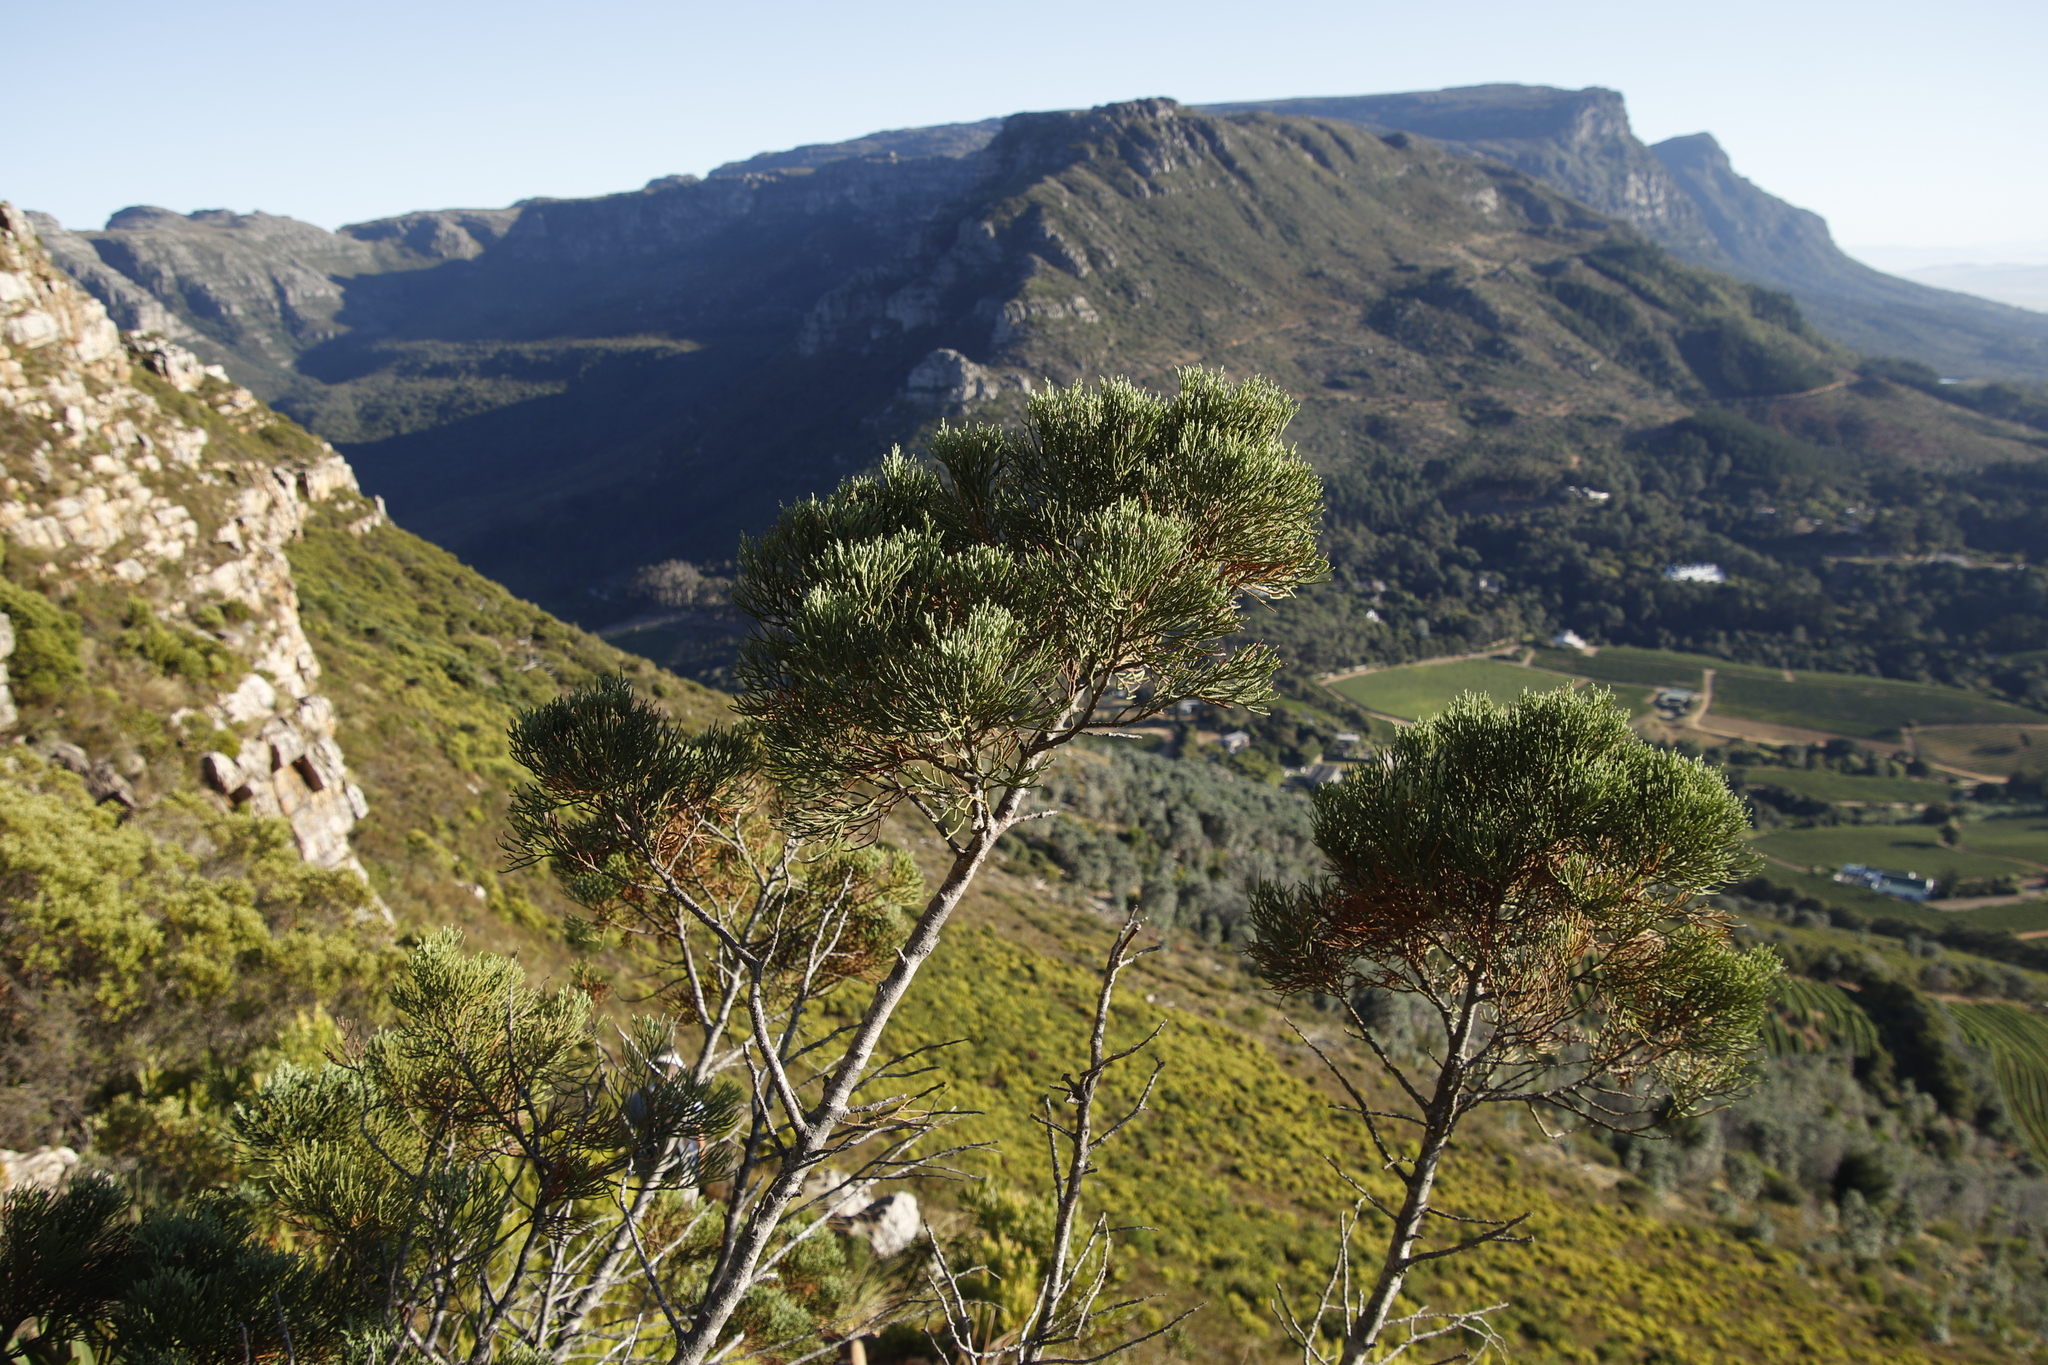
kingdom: Plantae
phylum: Tracheophyta
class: Pinopsida
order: Pinales
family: Cupressaceae
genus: Widdringtonia
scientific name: Widdringtonia nodiflora
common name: Cape cypress
